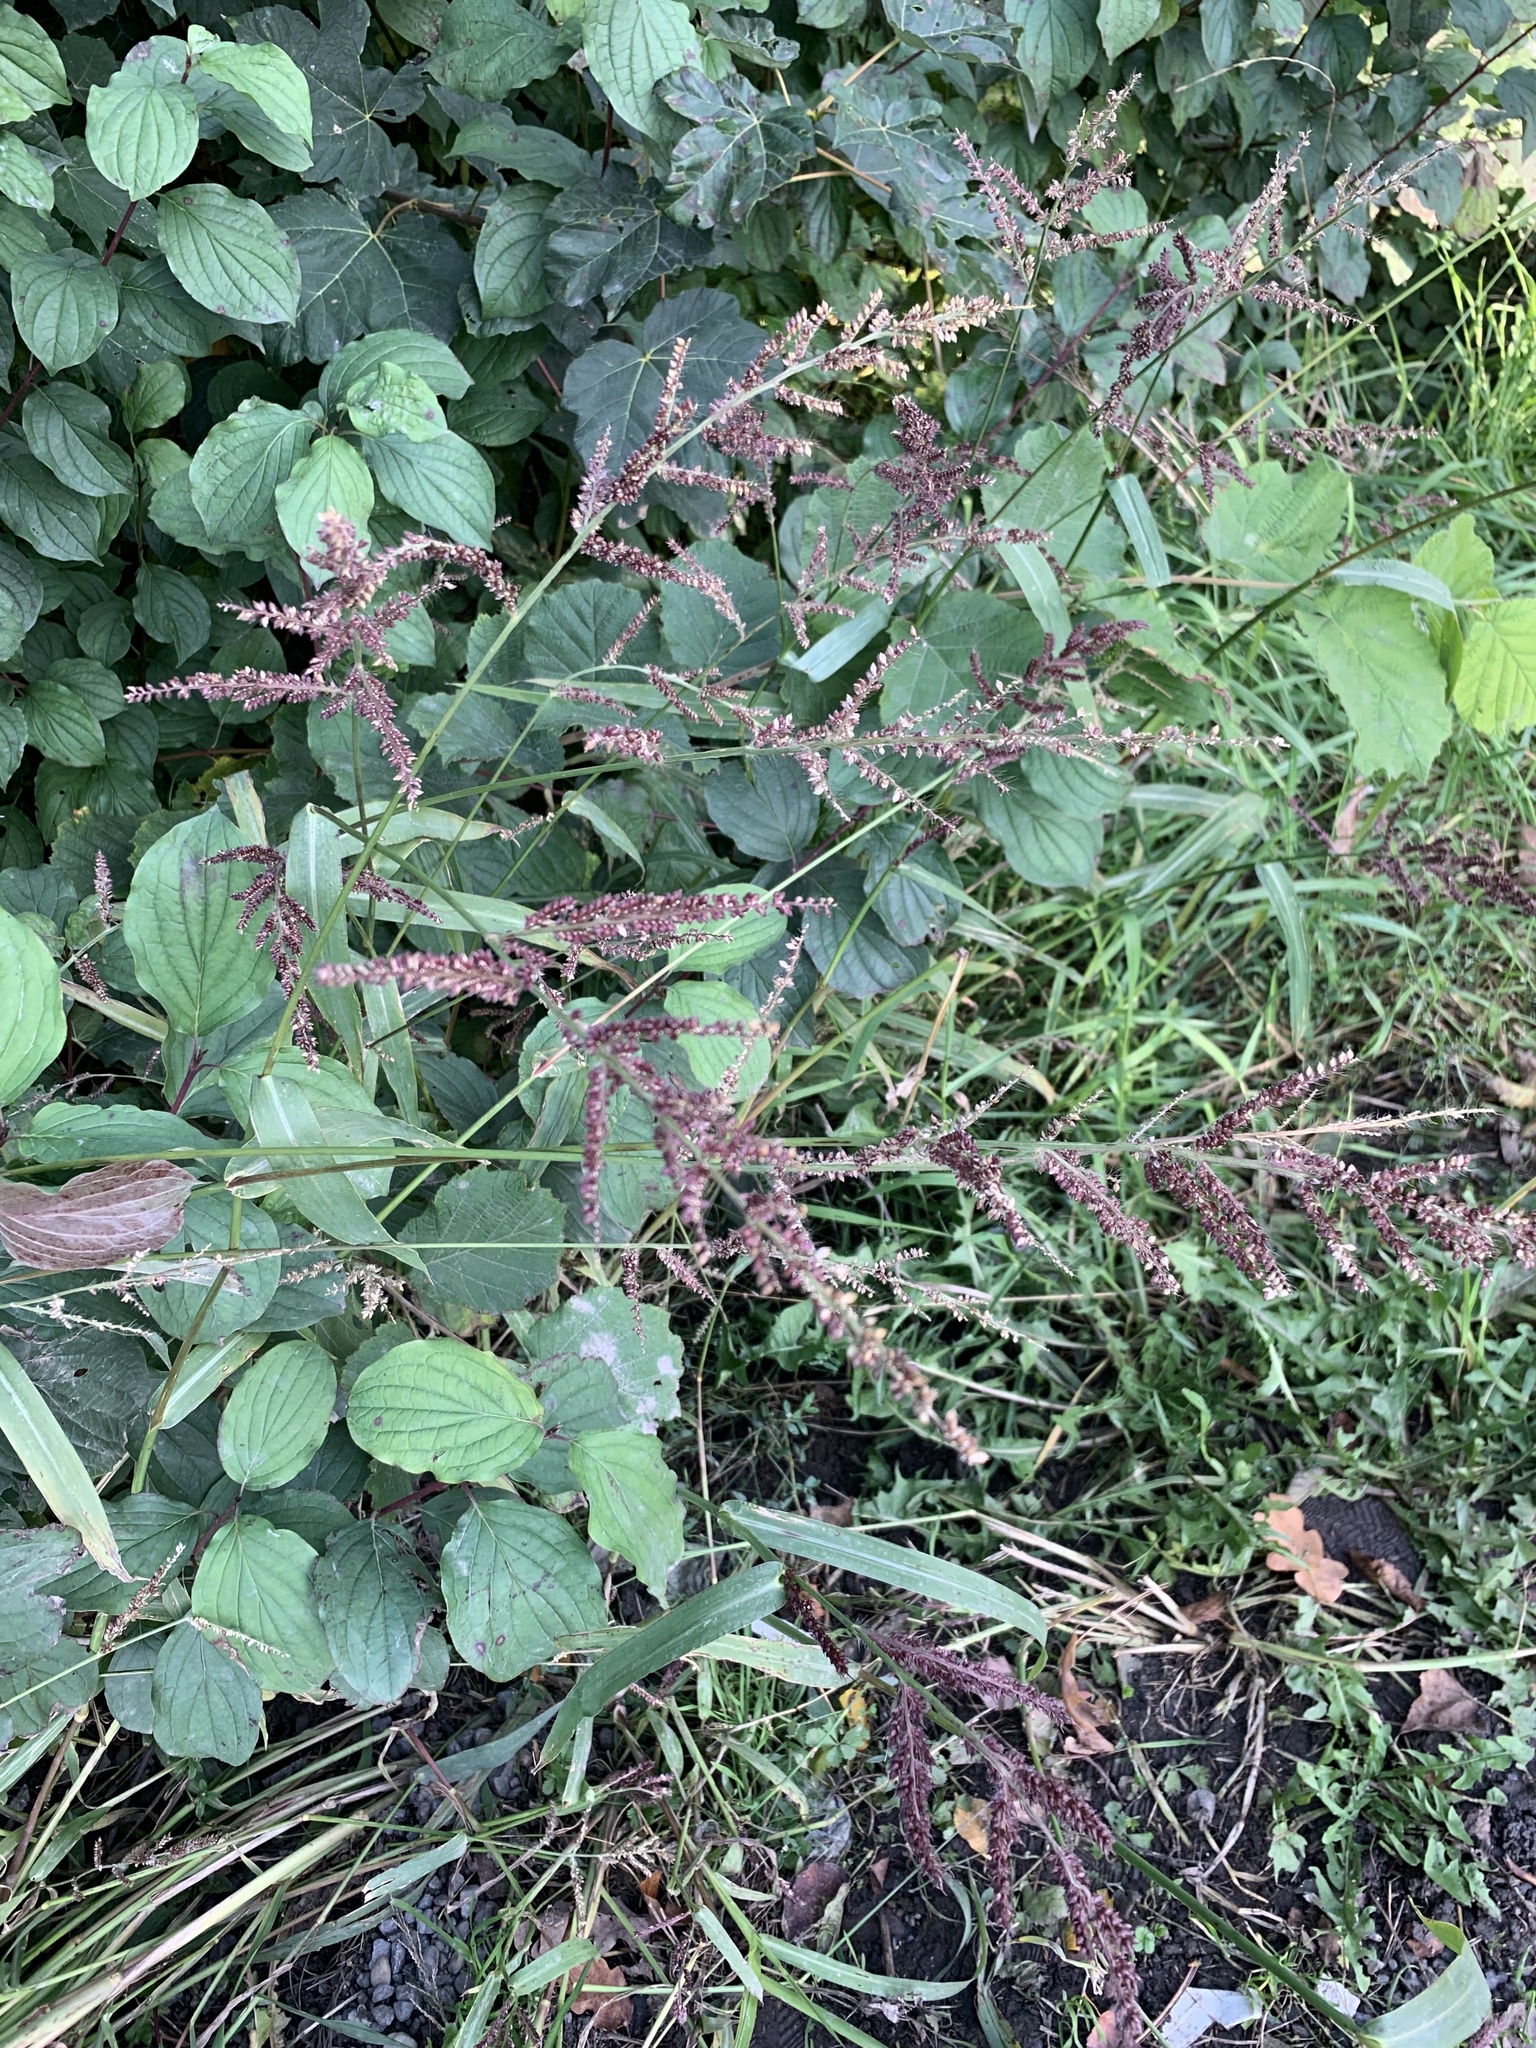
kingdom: Plantae
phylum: Tracheophyta
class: Liliopsida
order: Poales
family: Poaceae
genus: Echinochloa
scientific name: Echinochloa crus-galli
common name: Cockspur
